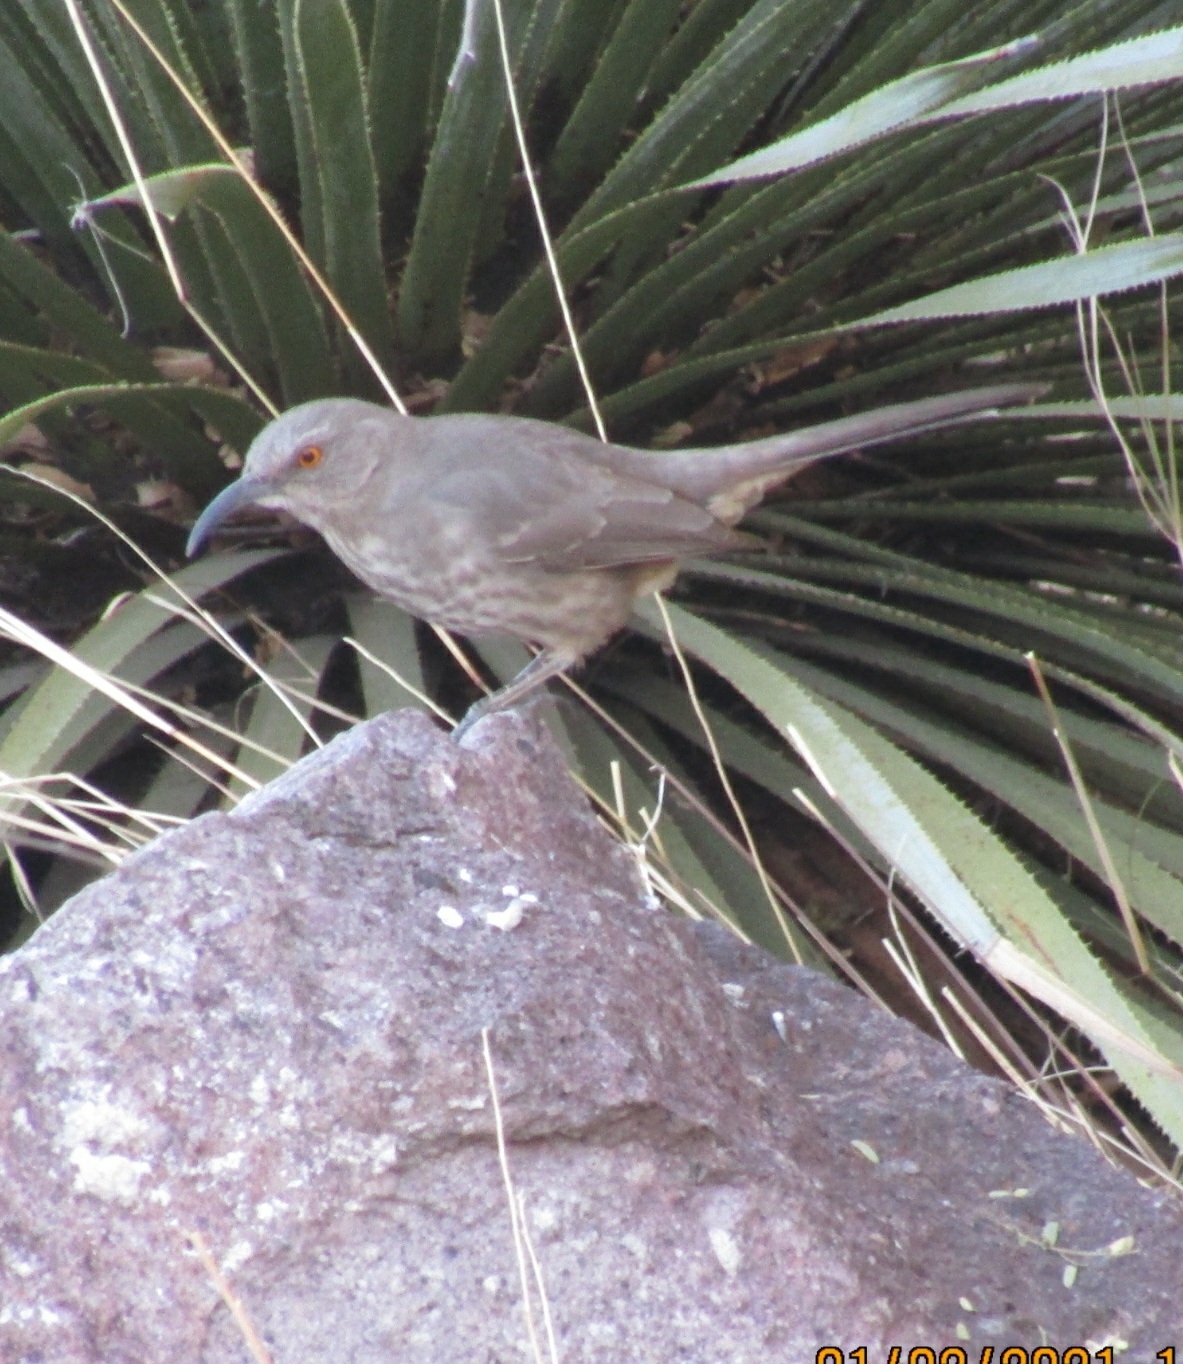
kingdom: Animalia
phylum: Chordata
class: Aves
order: Passeriformes
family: Mimidae
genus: Toxostoma
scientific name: Toxostoma curvirostre
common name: Curve-billed thrasher
